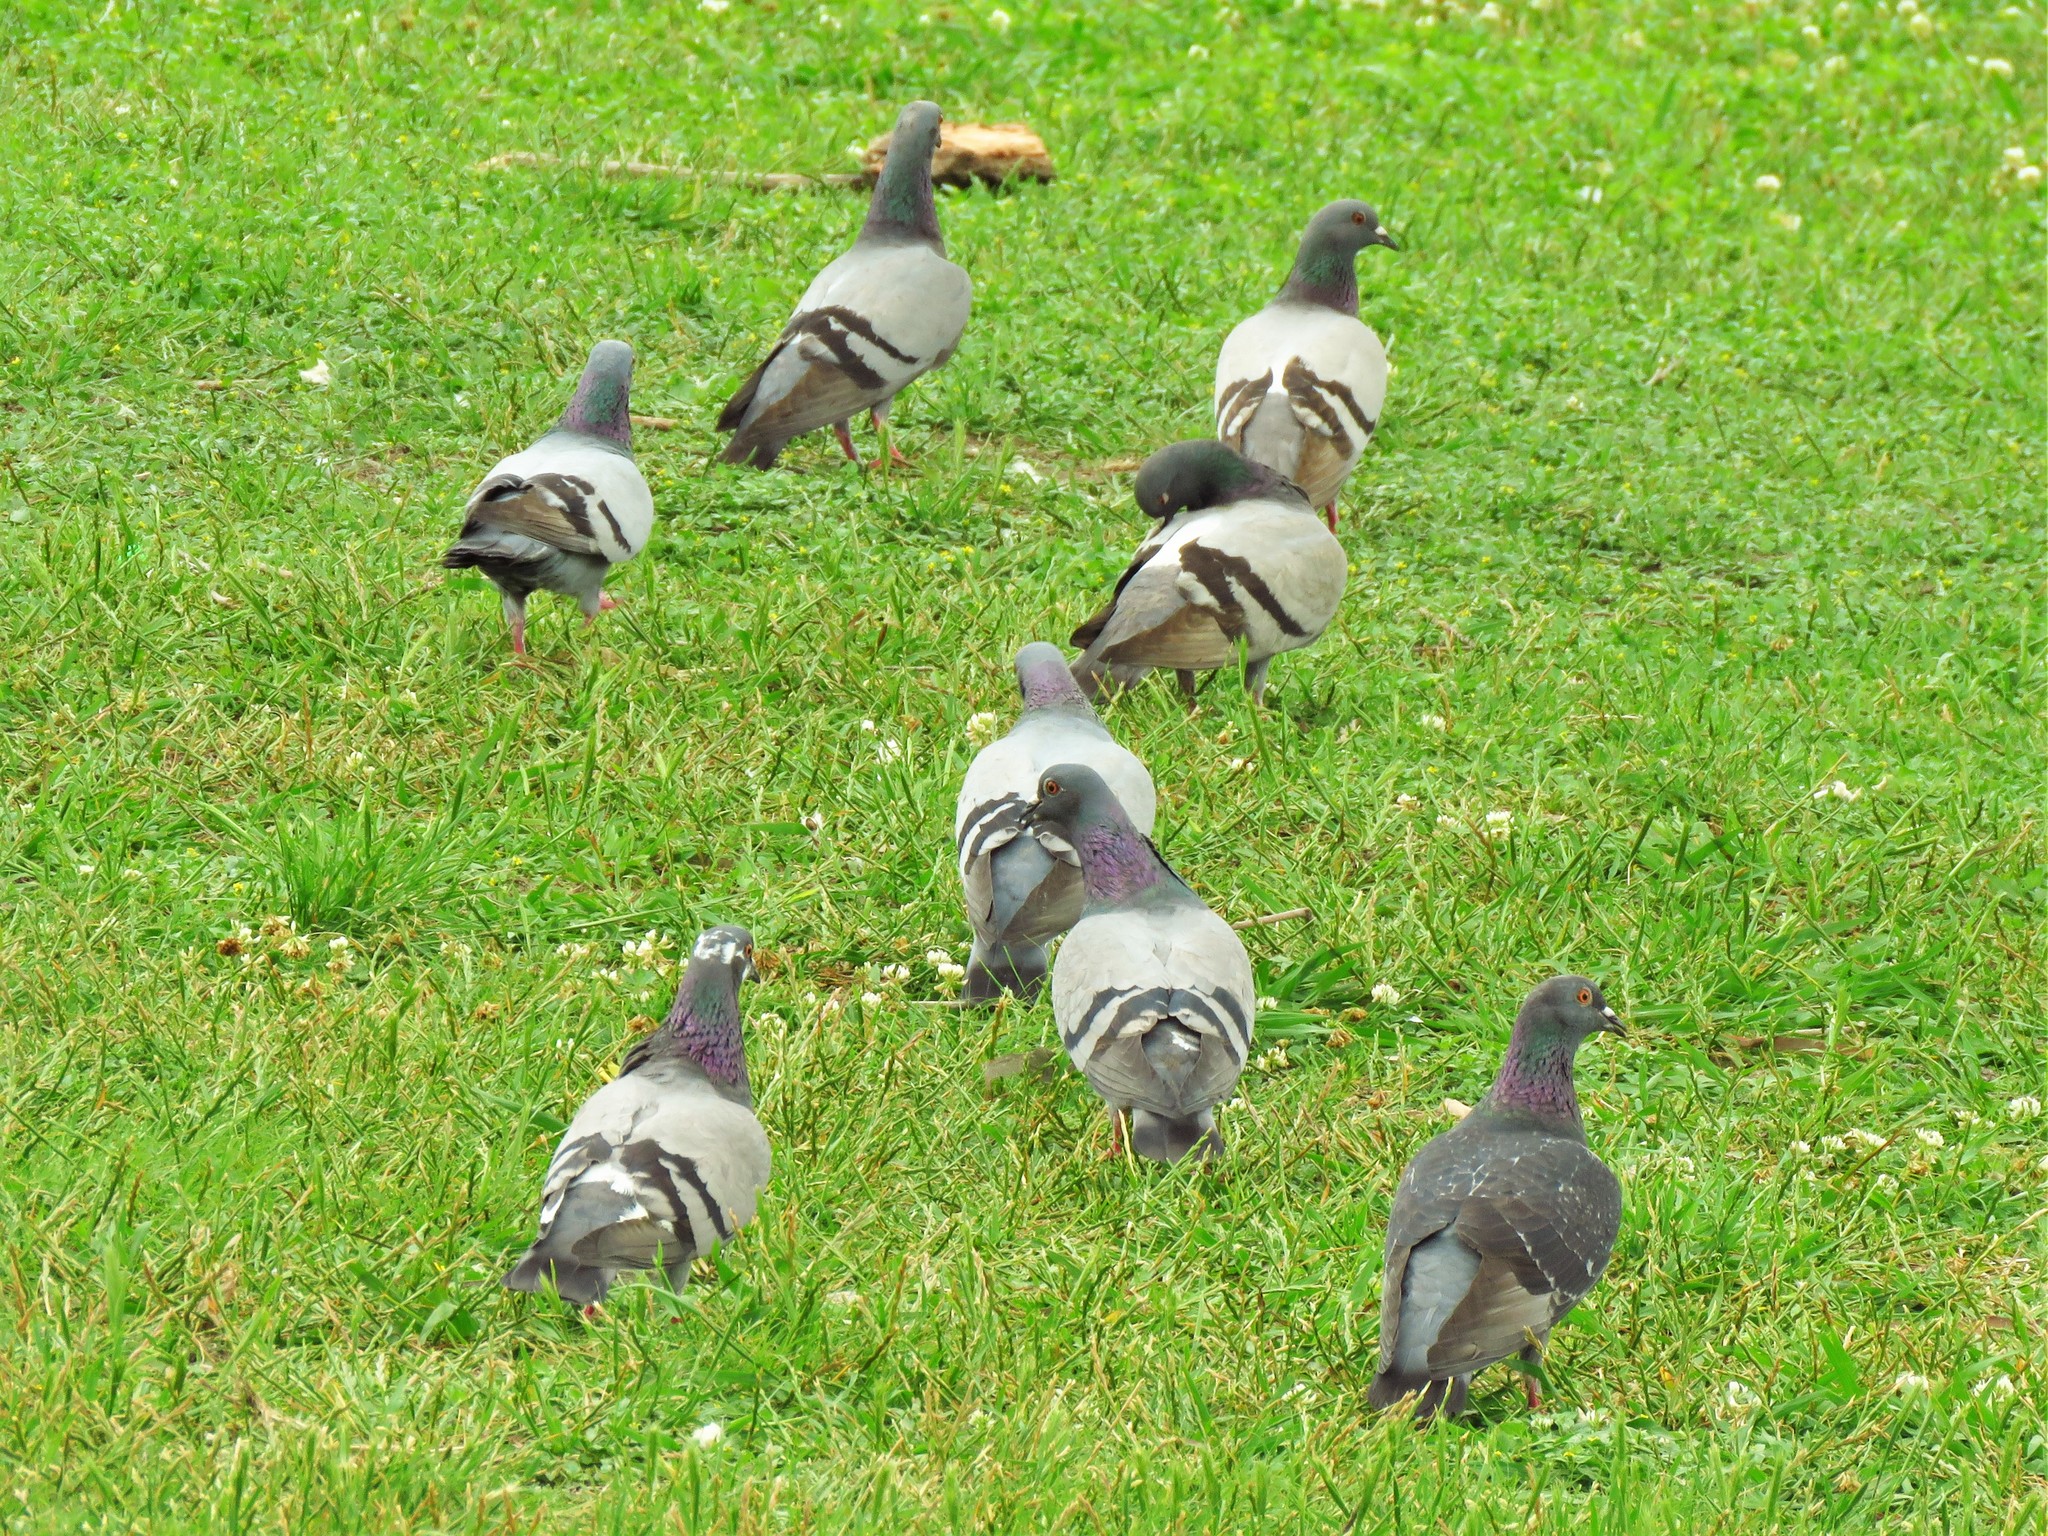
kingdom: Animalia
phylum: Chordata
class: Aves
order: Columbiformes
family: Columbidae
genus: Columba
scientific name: Columba livia
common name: Rock pigeon
